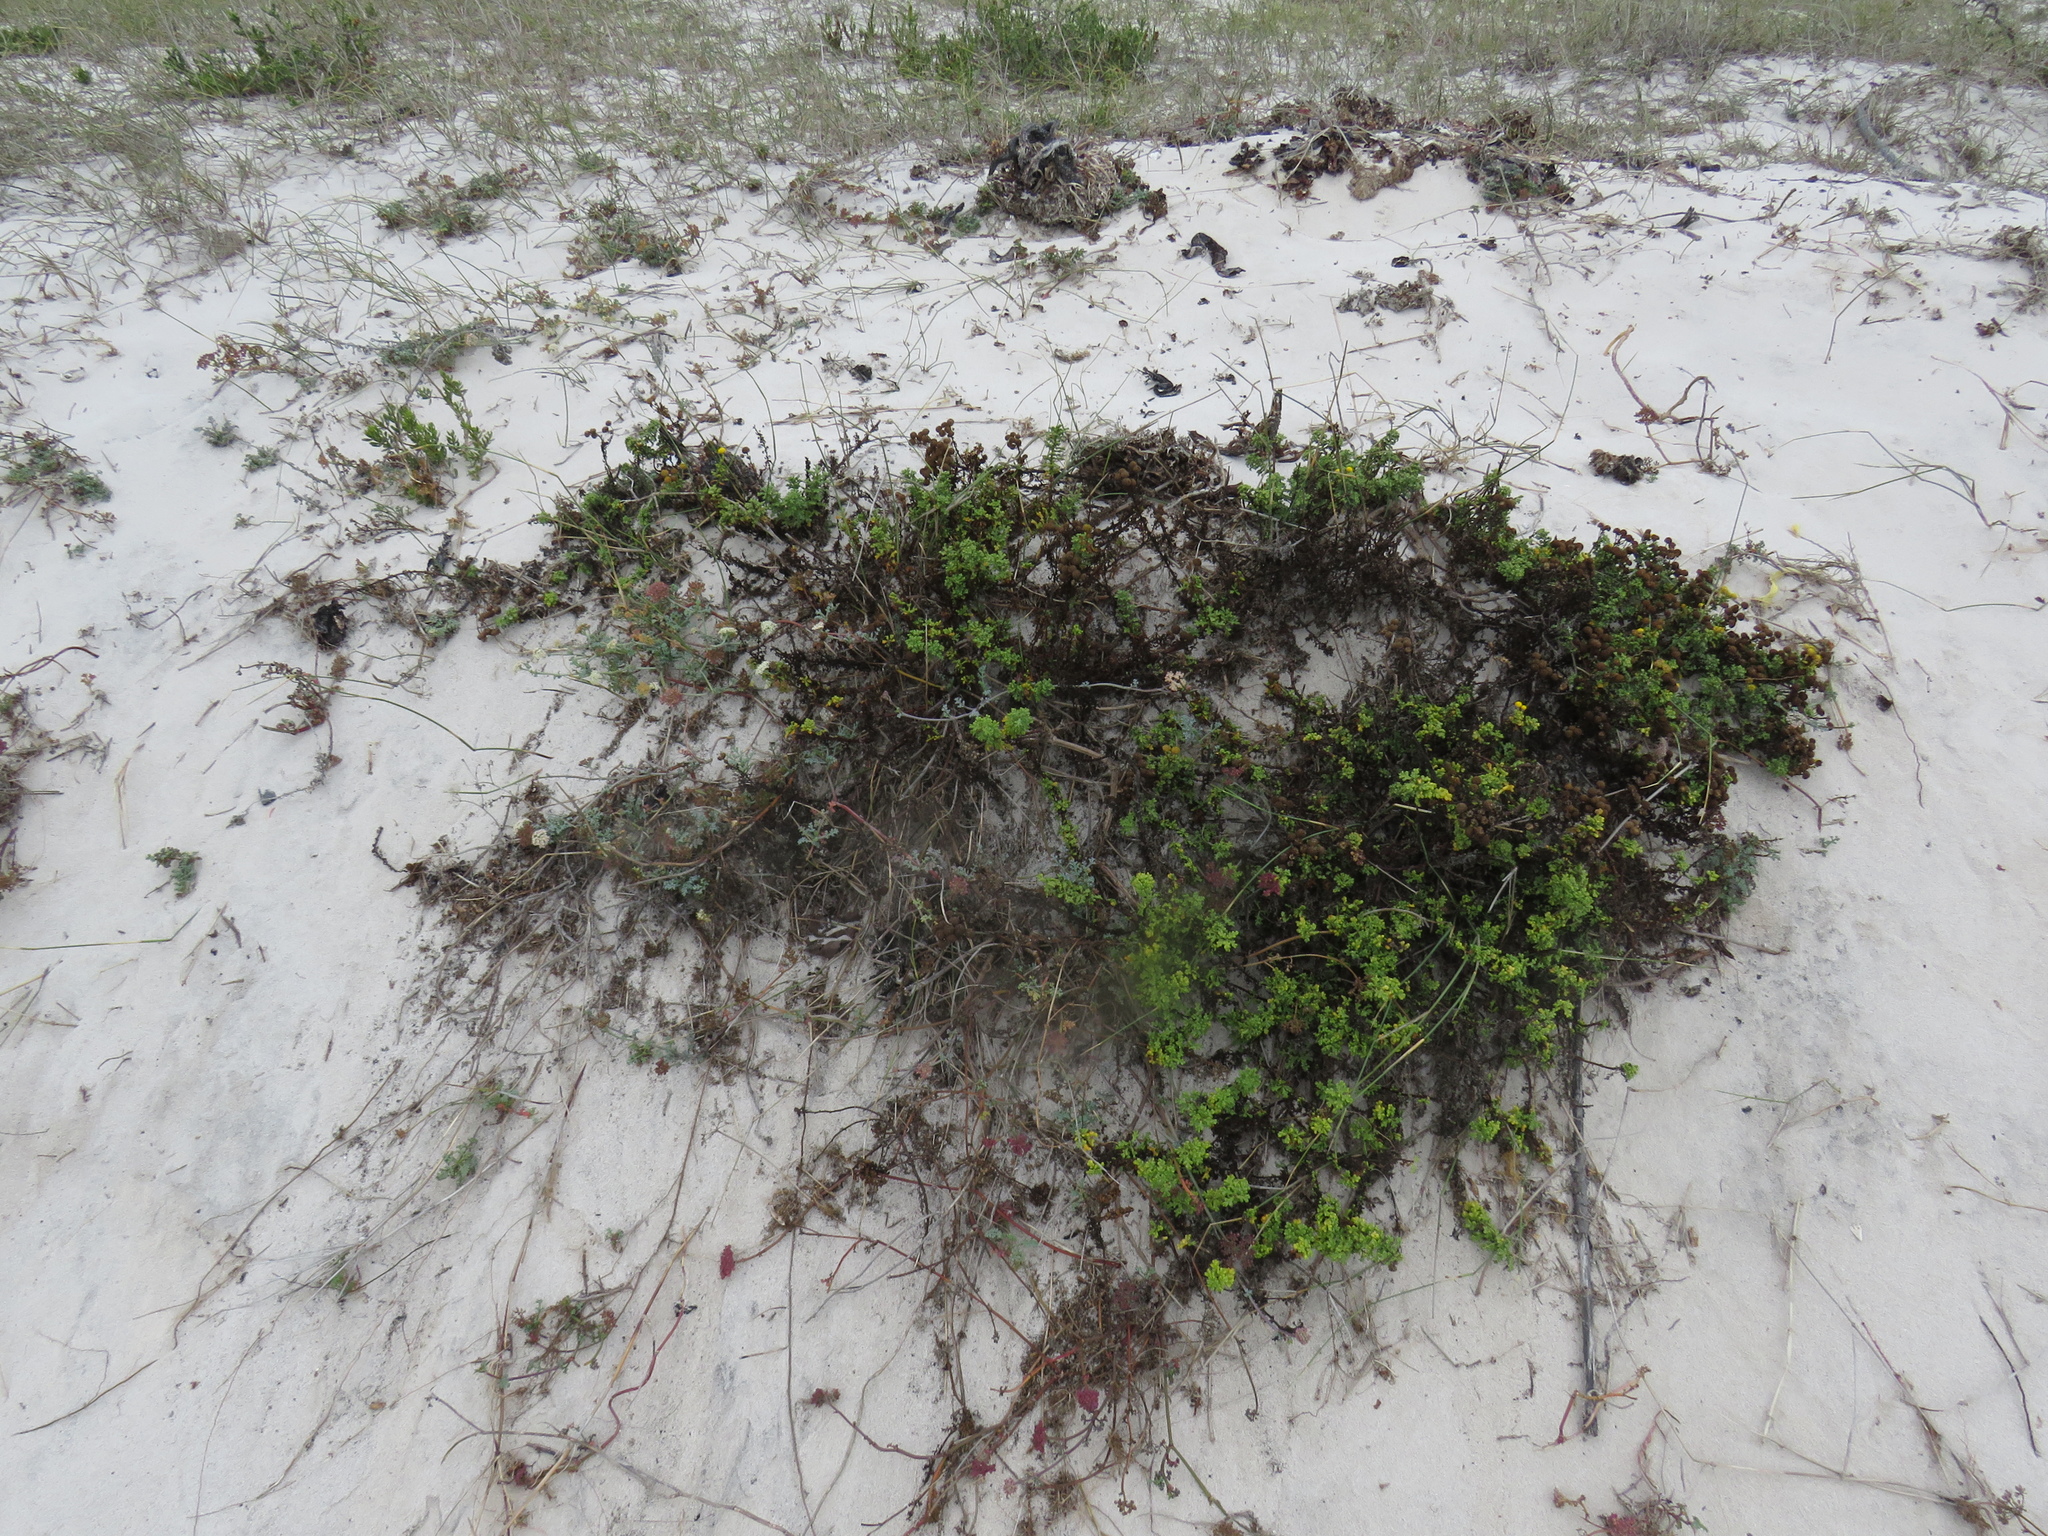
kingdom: Plantae
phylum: Tracheophyta
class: Magnoliopsida
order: Asterales
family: Asteraceae
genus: Oncosiphon
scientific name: Oncosiphon sabulosus
